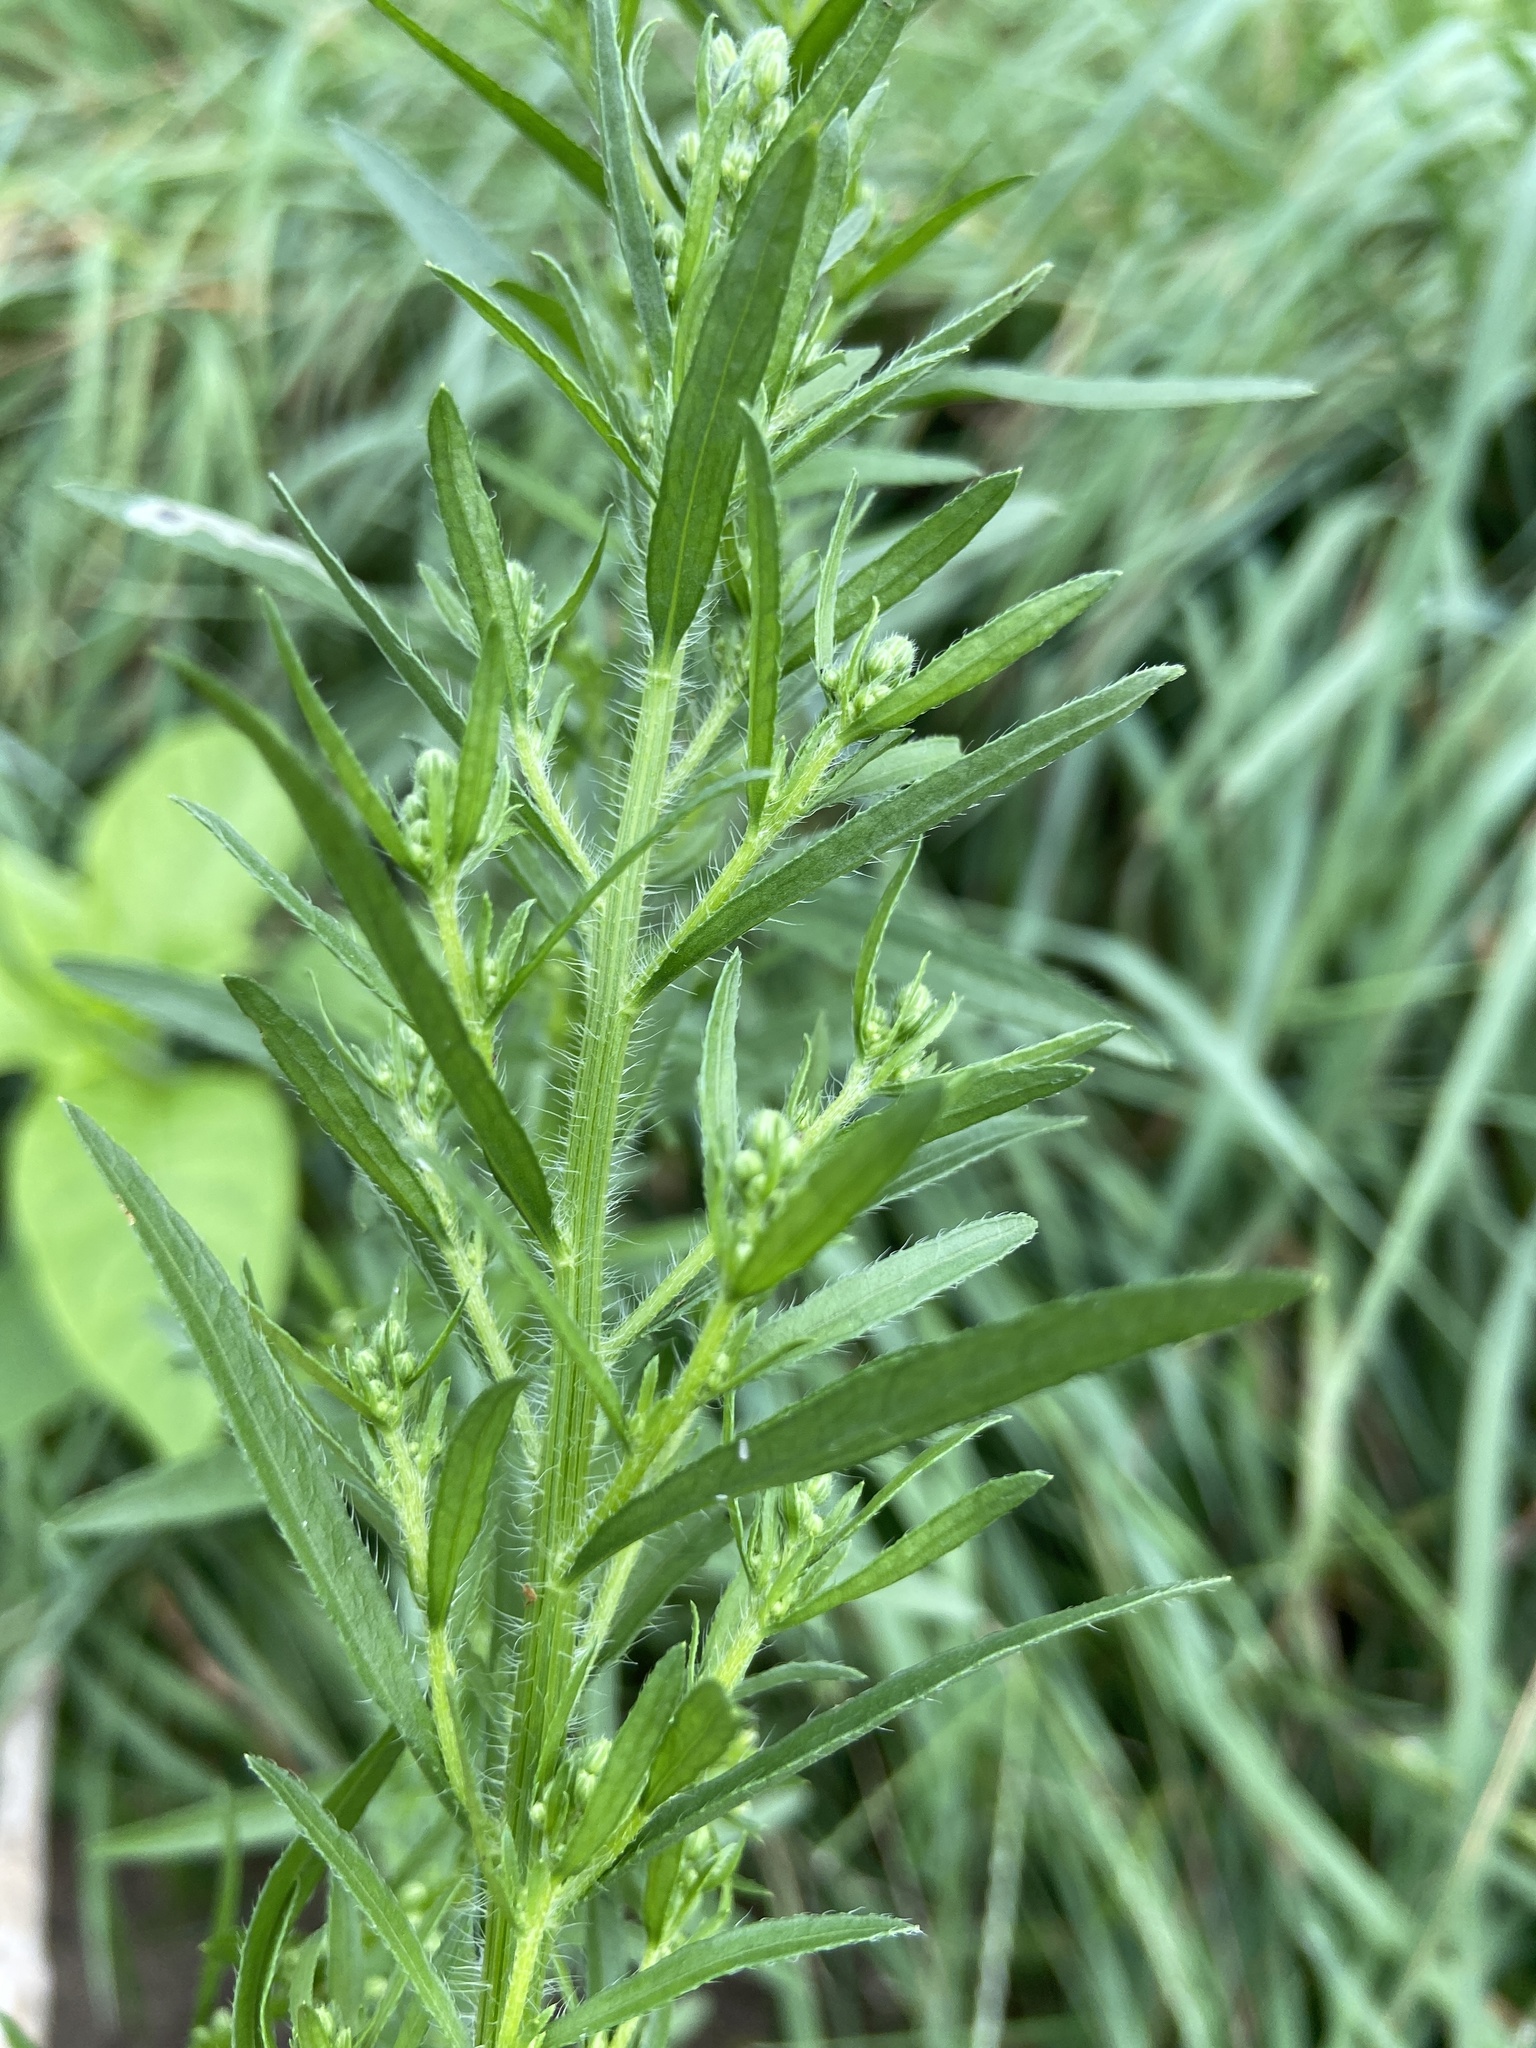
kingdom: Plantae
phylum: Tracheophyta
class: Magnoliopsida
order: Asterales
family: Asteraceae
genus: Erigeron
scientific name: Erigeron canadensis
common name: Canadian fleabane
